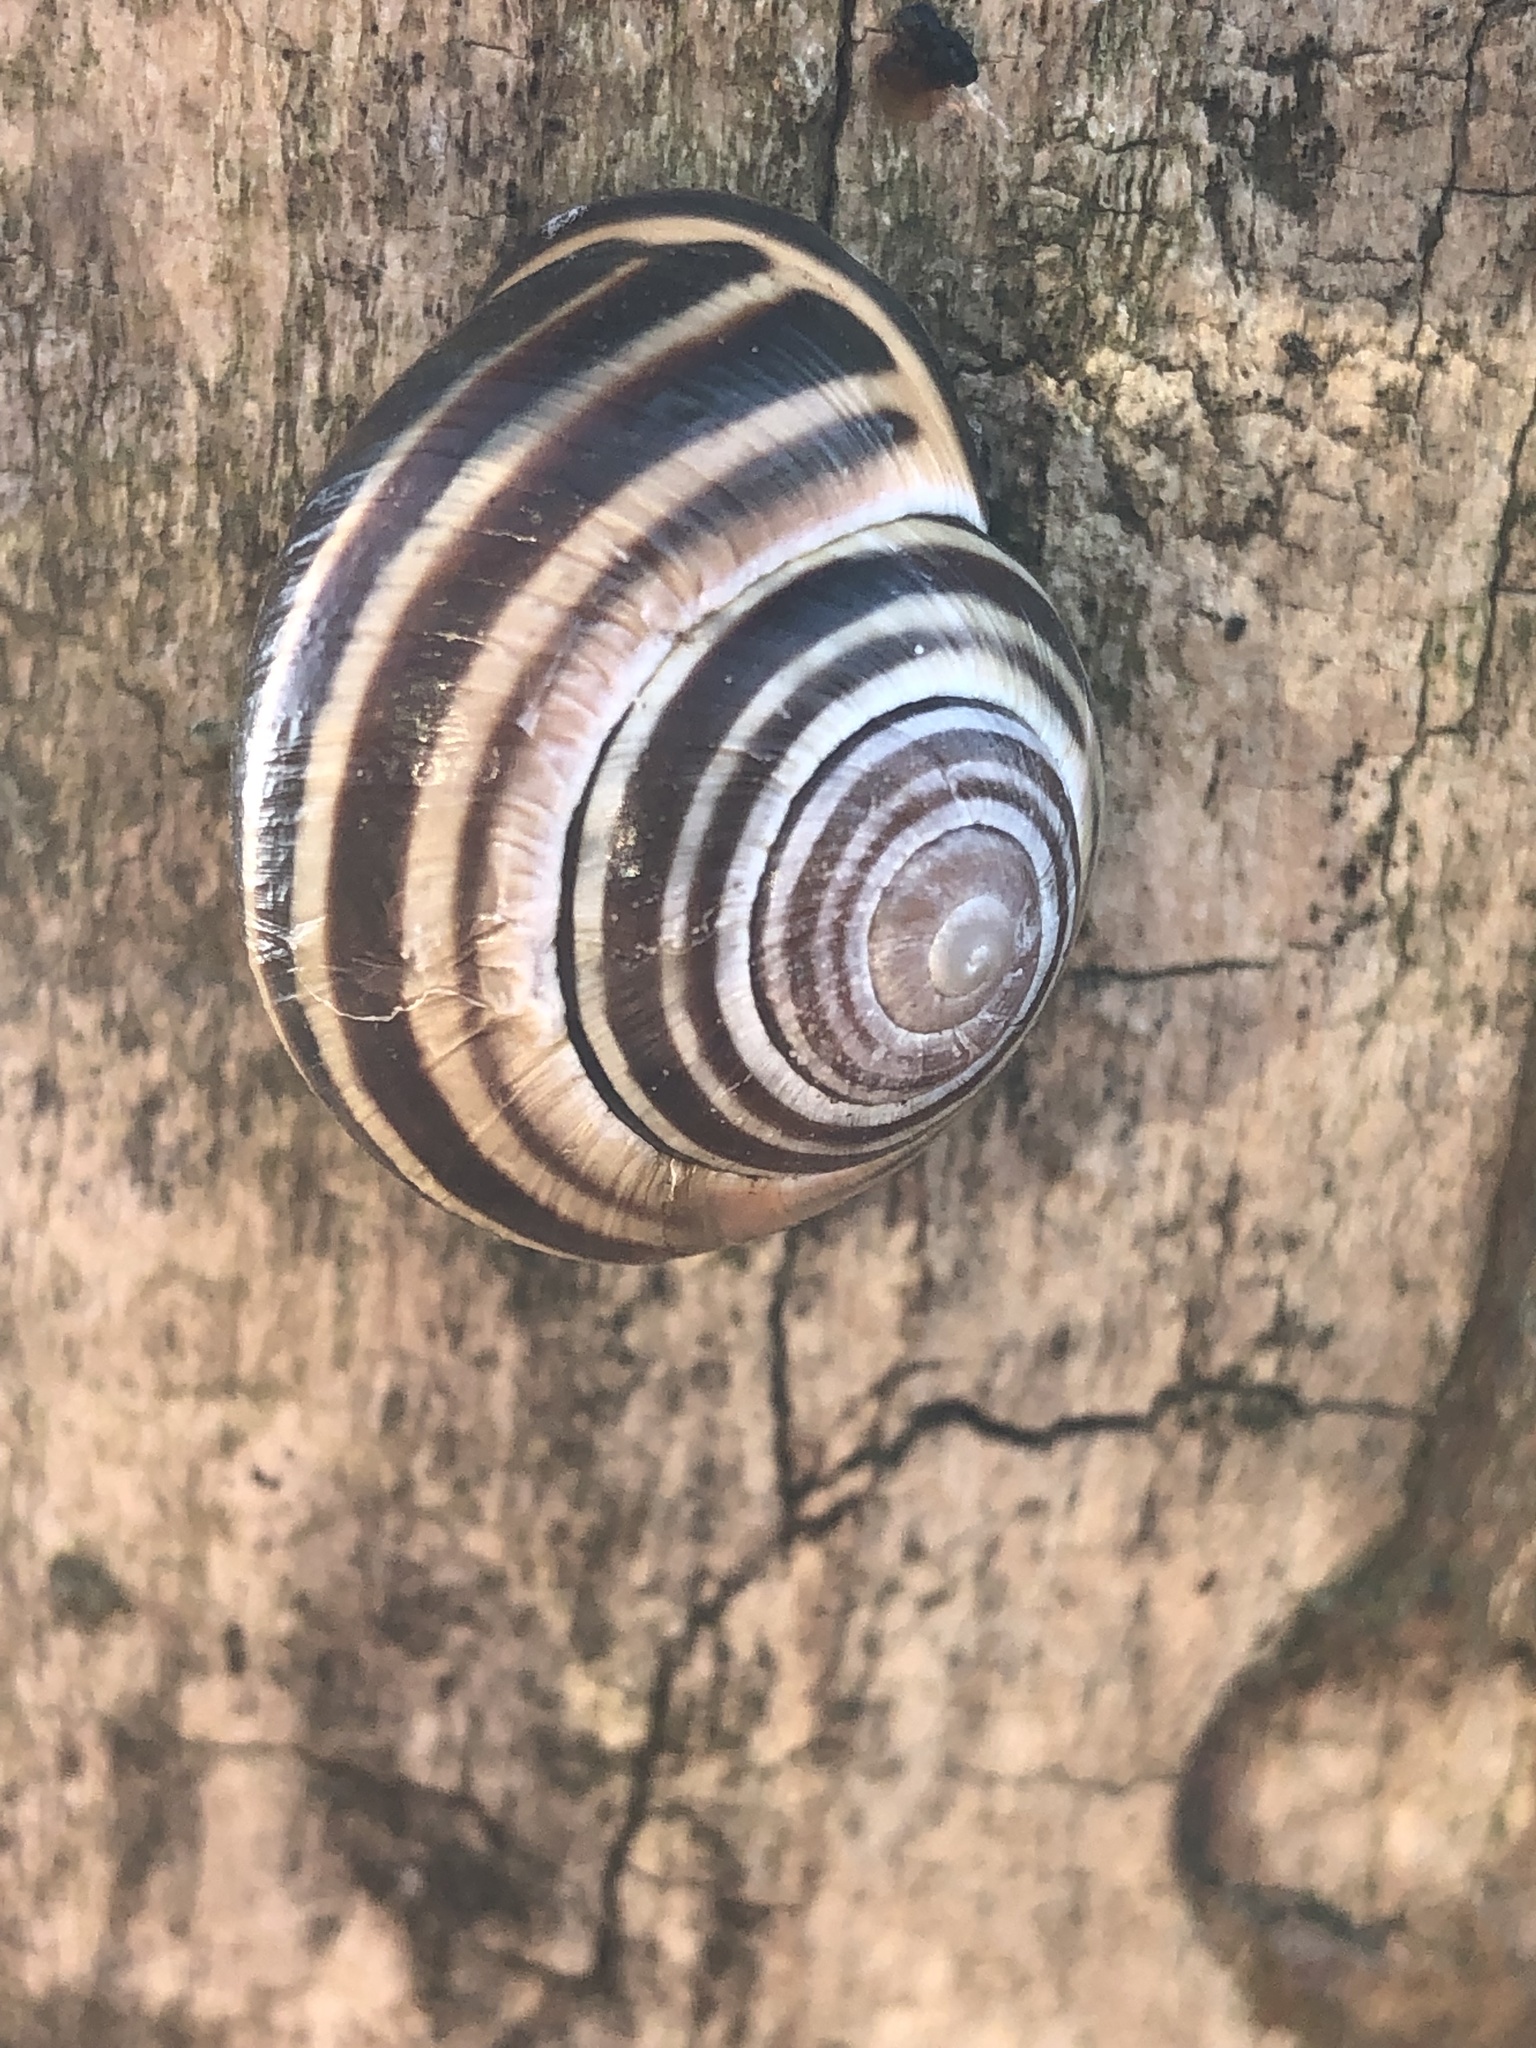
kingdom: Animalia
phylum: Mollusca
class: Gastropoda
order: Stylommatophora
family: Helicidae
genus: Cepaea
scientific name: Cepaea nemoralis
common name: Grovesnail
